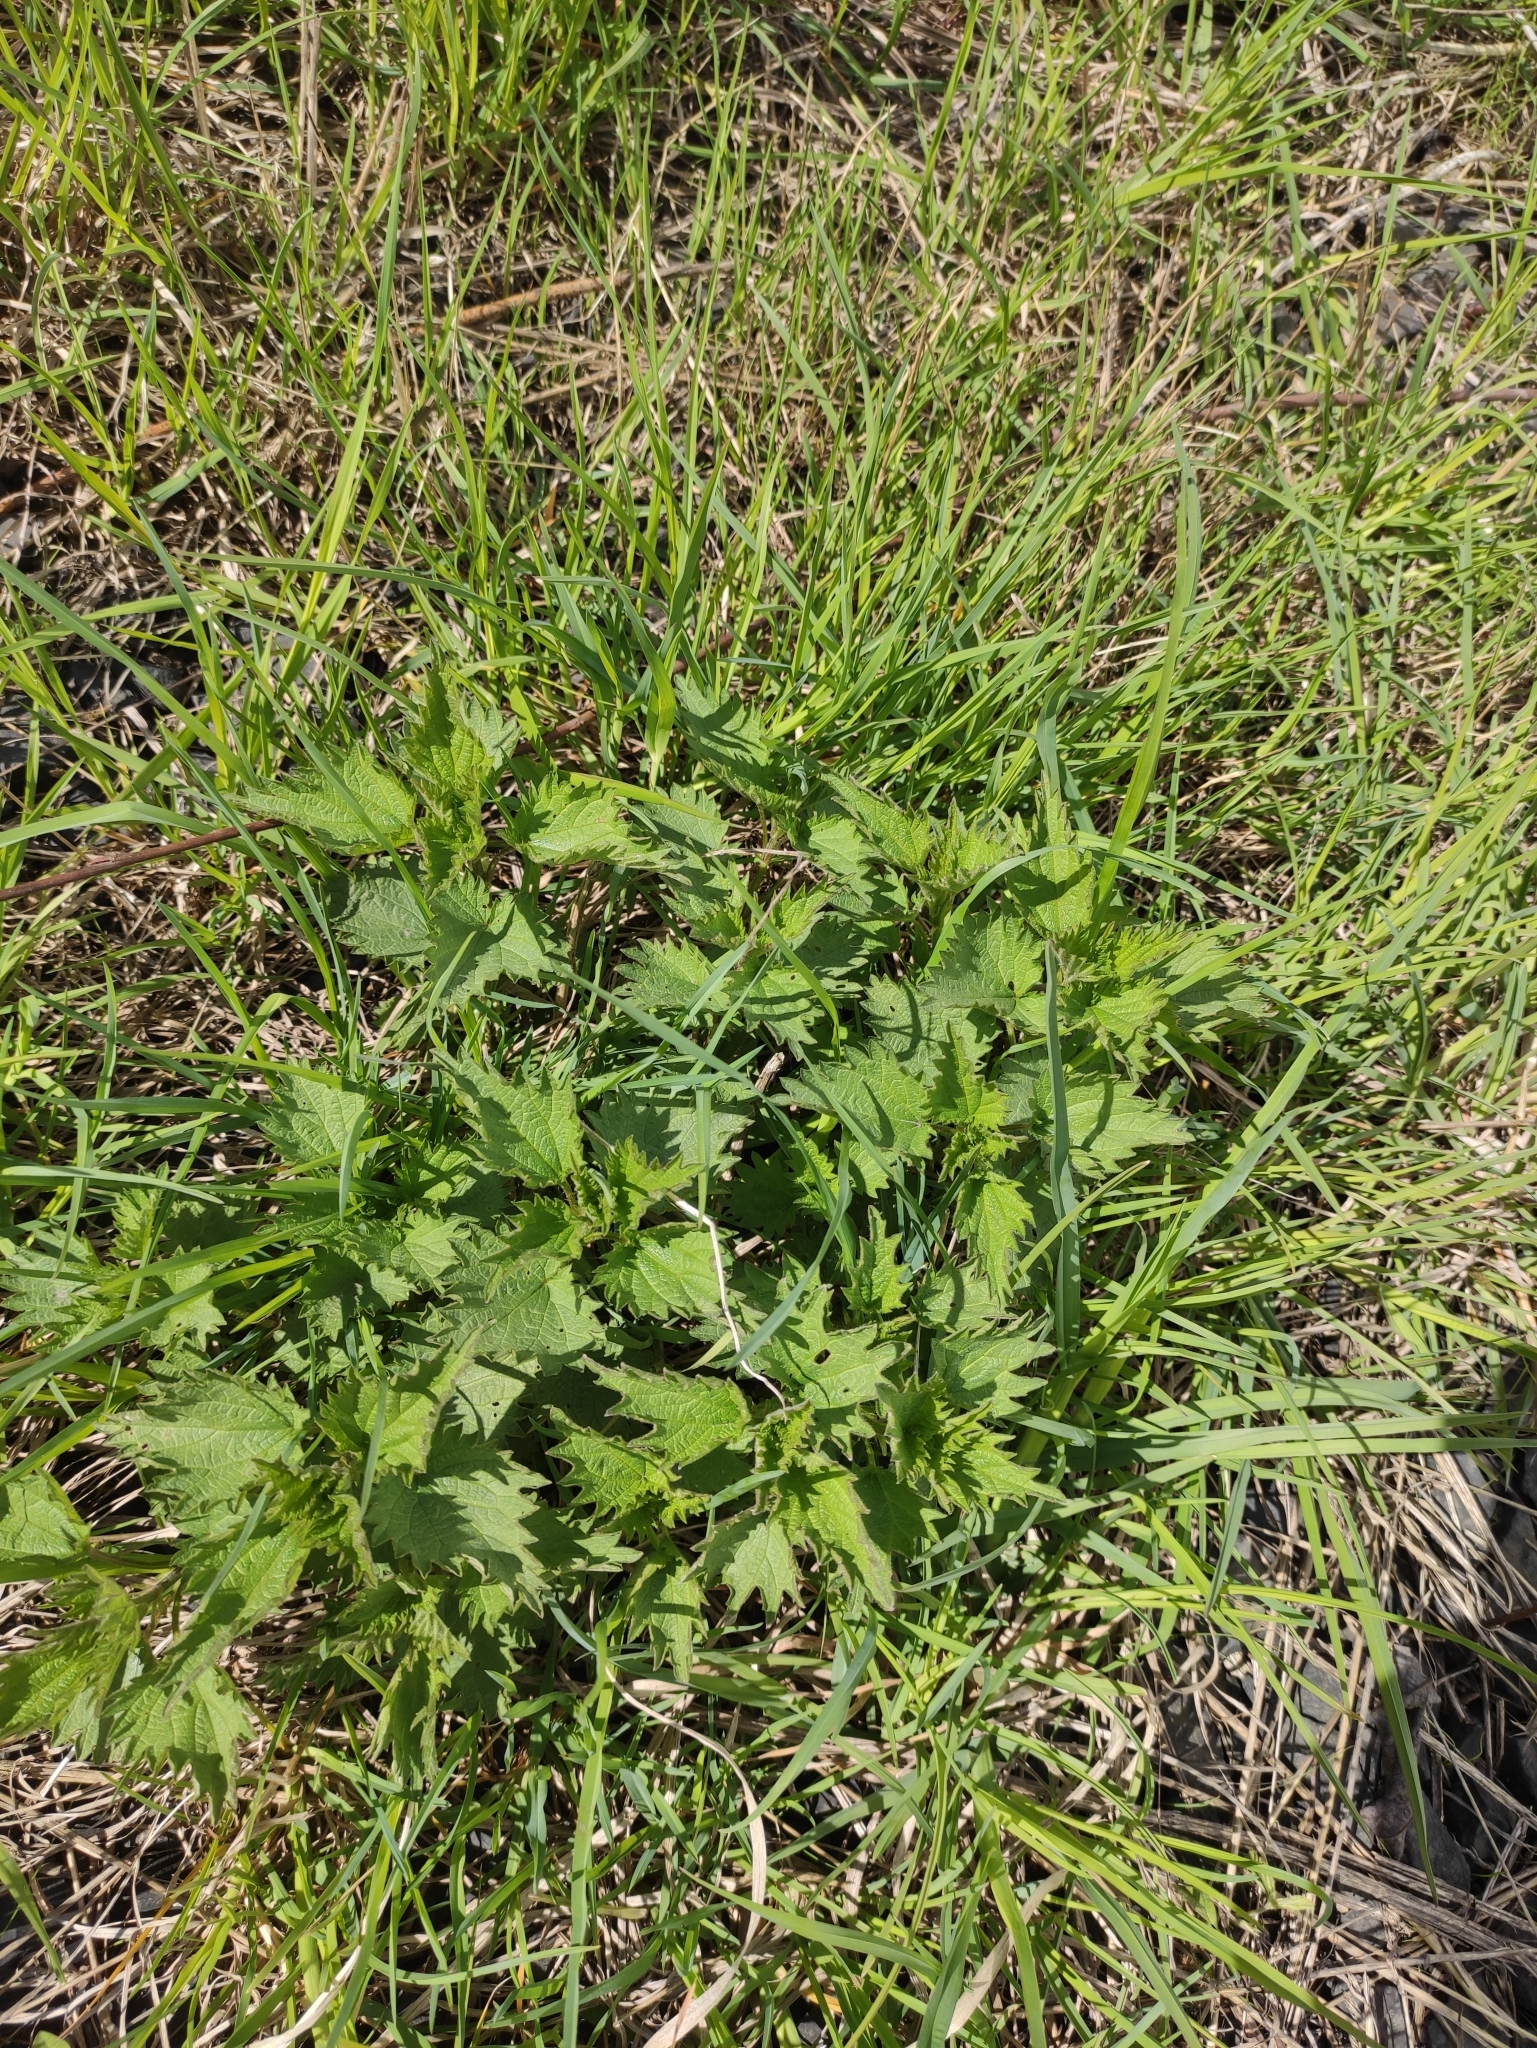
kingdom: Plantae
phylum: Tracheophyta
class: Magnoliopsida
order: Rosales
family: Urticaceae
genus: Urtica
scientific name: Urtica dioica
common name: Common nettle
